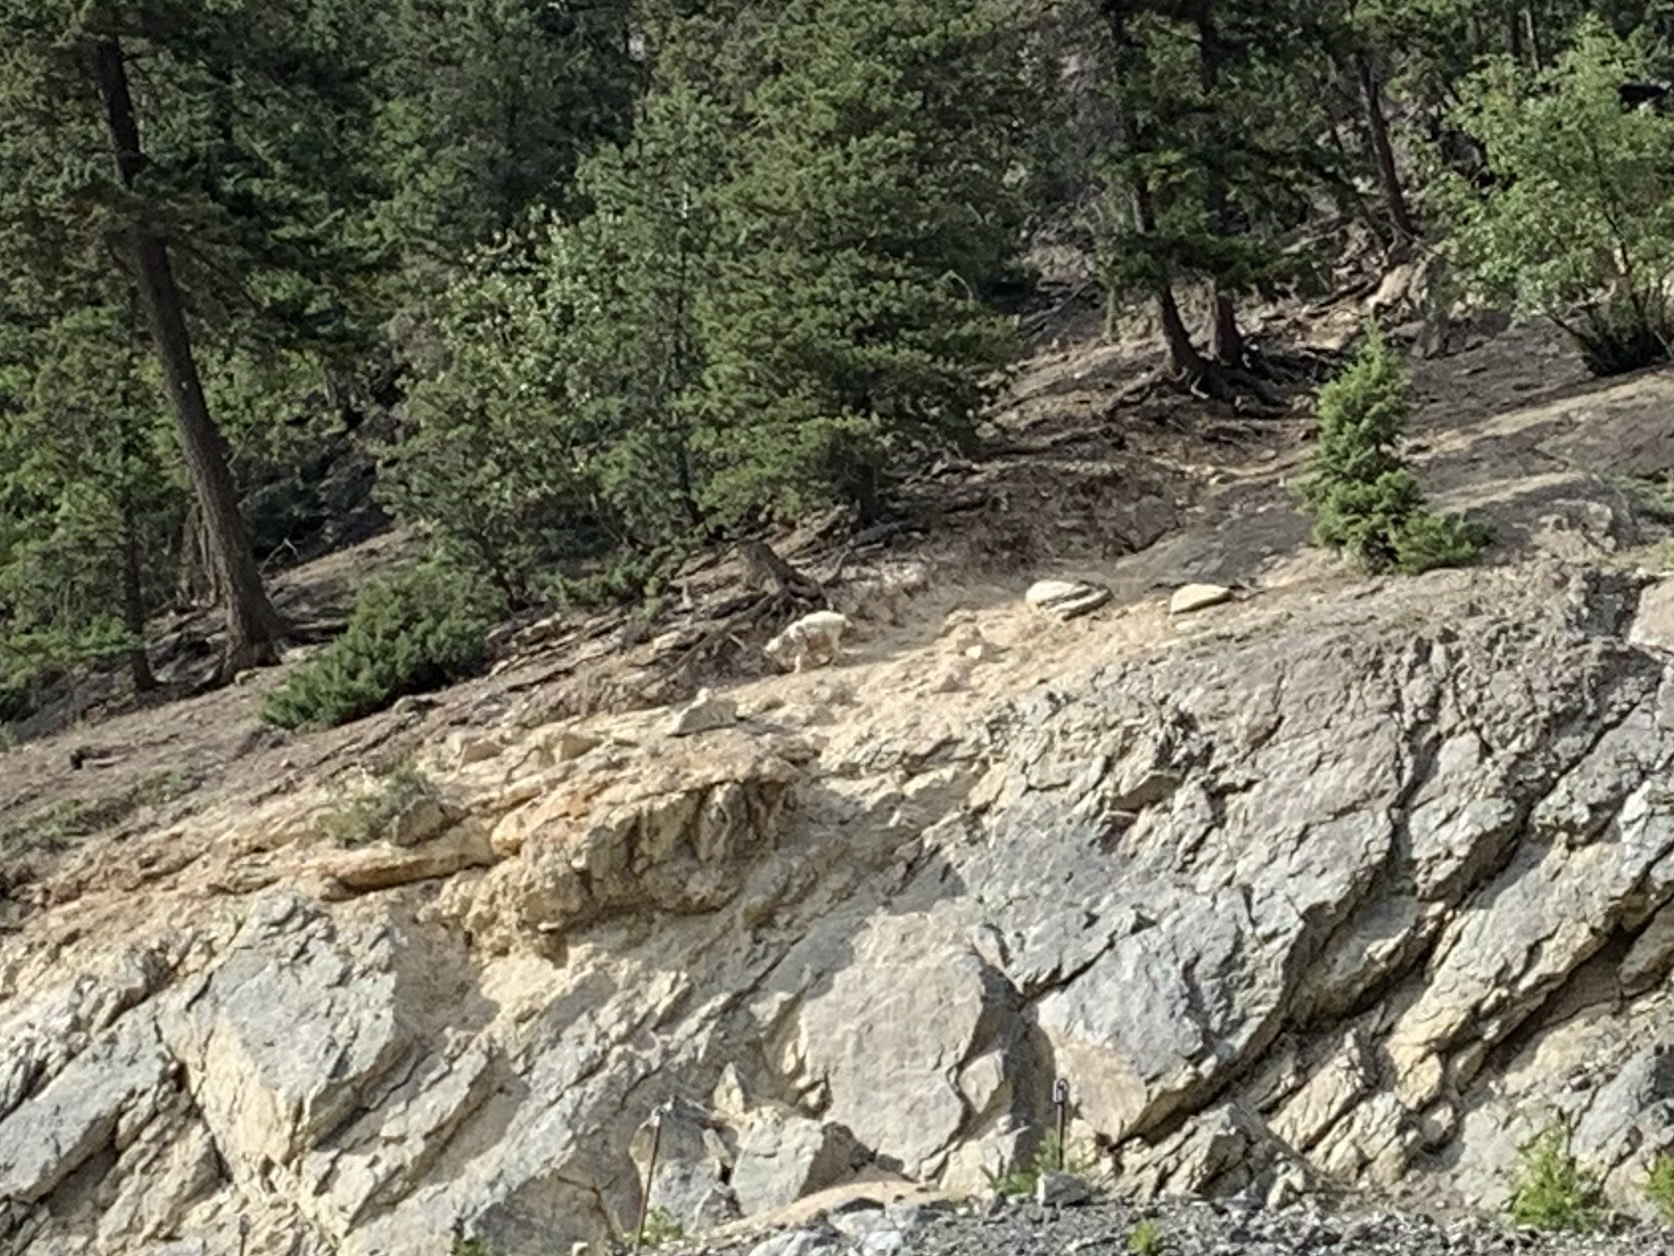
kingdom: Animalia
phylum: Chordata
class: Mammalia
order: Artiodactyla
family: Bovidae
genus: Oreamnos
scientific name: Oreamnos americanus
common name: Mountain goat
